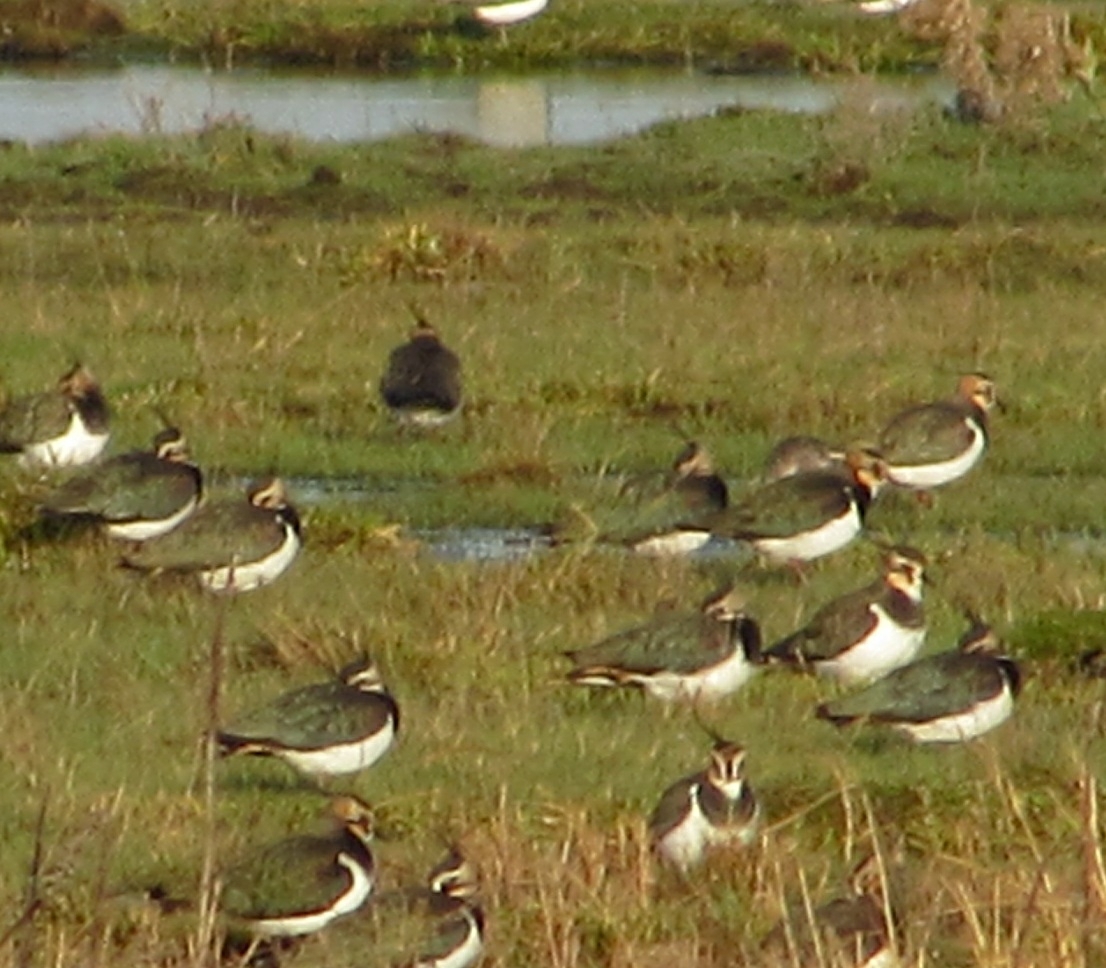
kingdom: Animalia
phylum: Chordata
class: Aves
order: Charadriiformes
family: Charadriidae
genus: Vanellus
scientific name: Vanellus vanellus
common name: Northern lapwing
